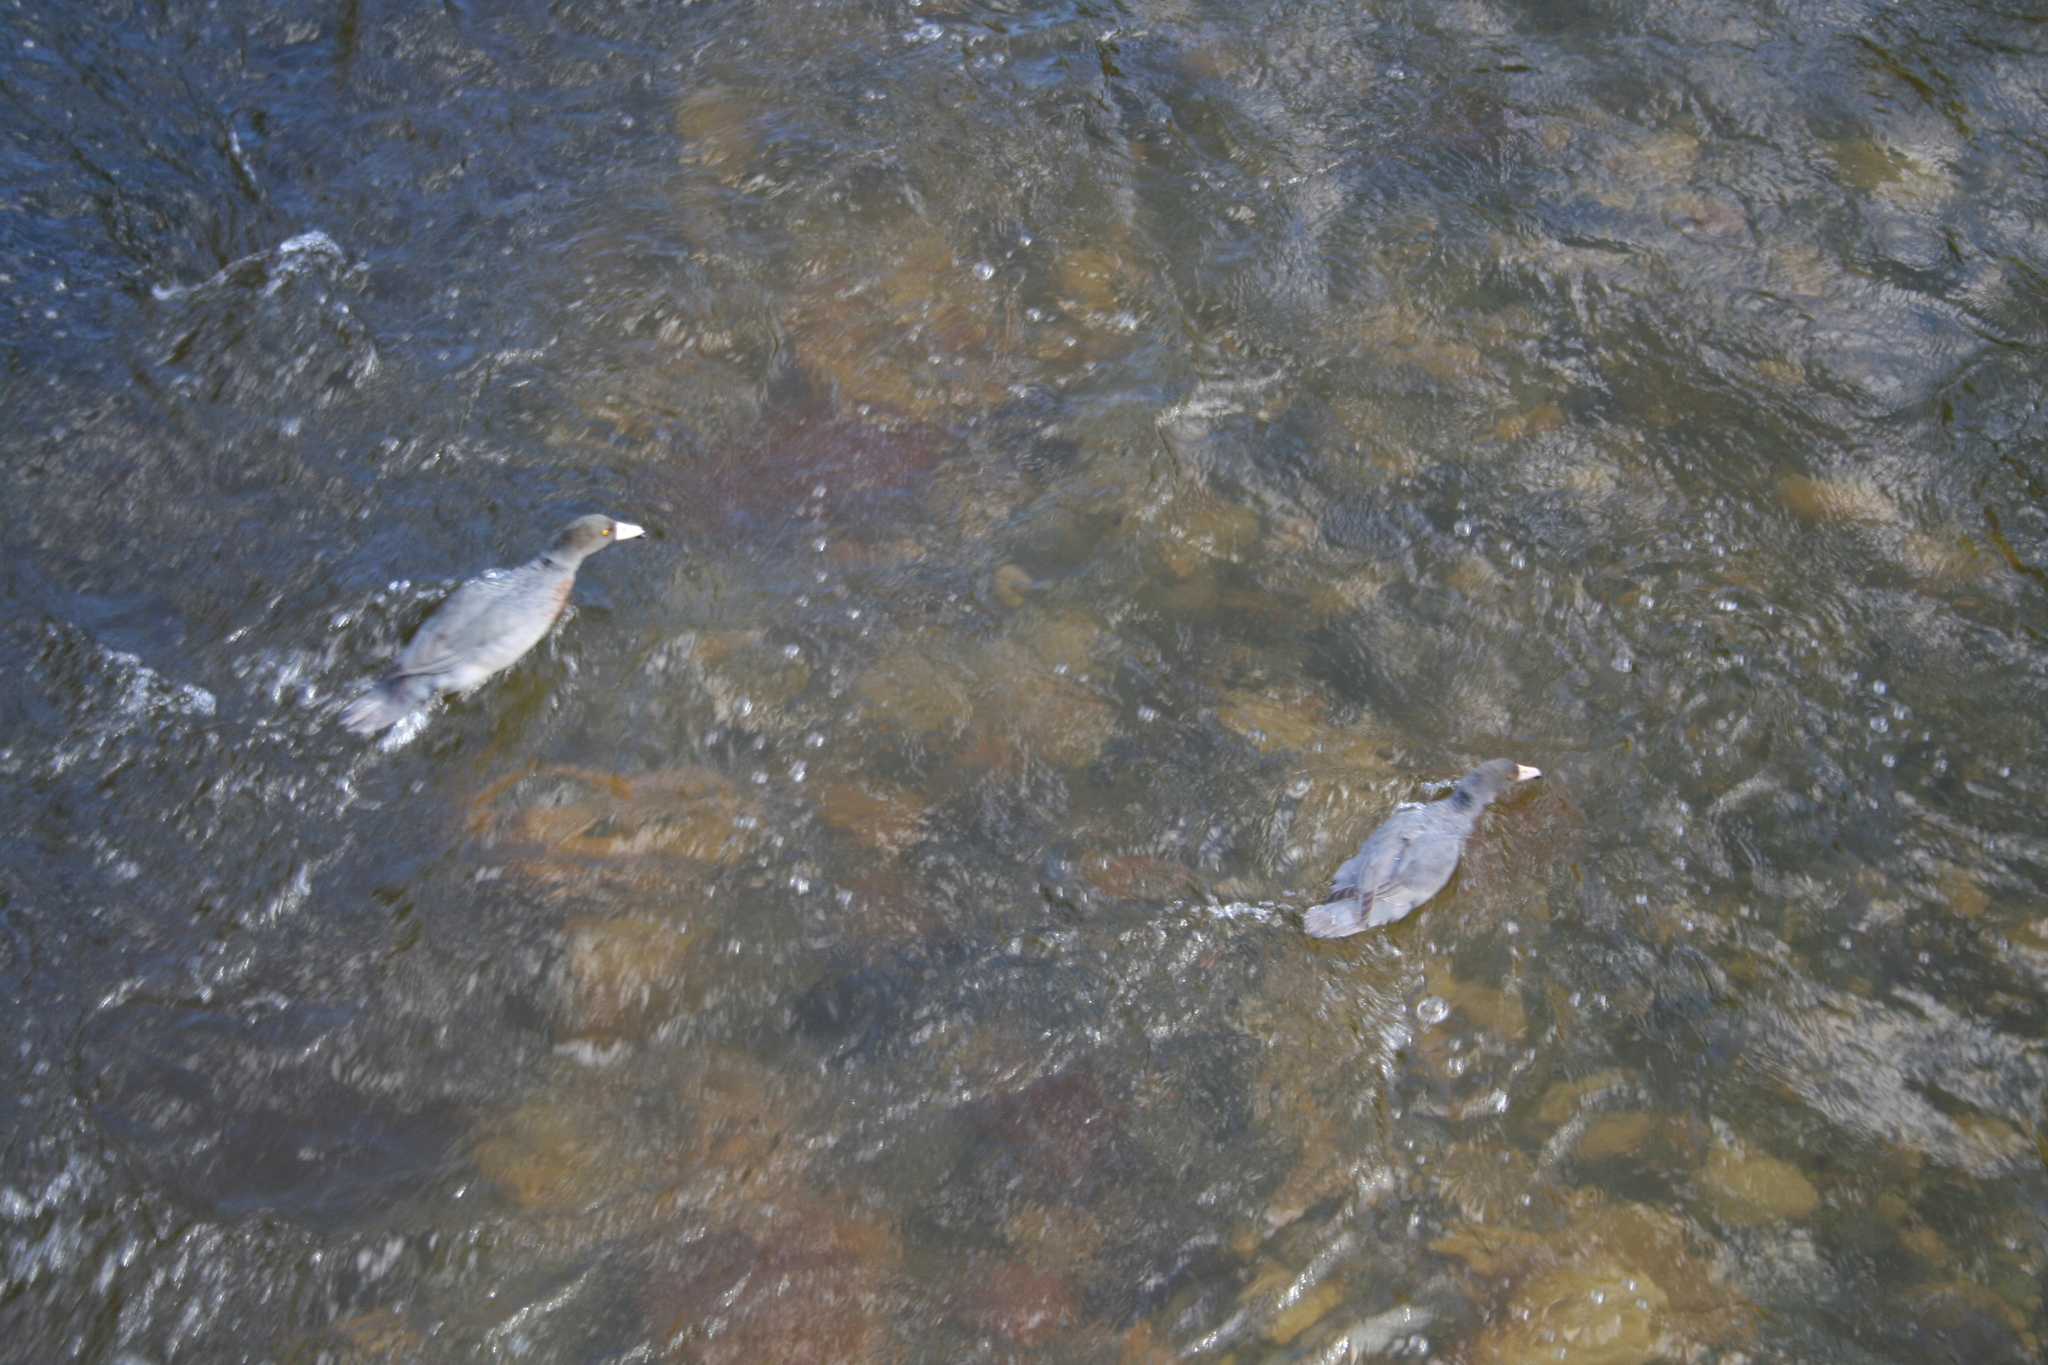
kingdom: Animalia
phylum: Chordata
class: Aves
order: Anseriformes
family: Anatidae
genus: Hymenolaimus
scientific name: Hymenolaimus malacorhynchos
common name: Blue duck
